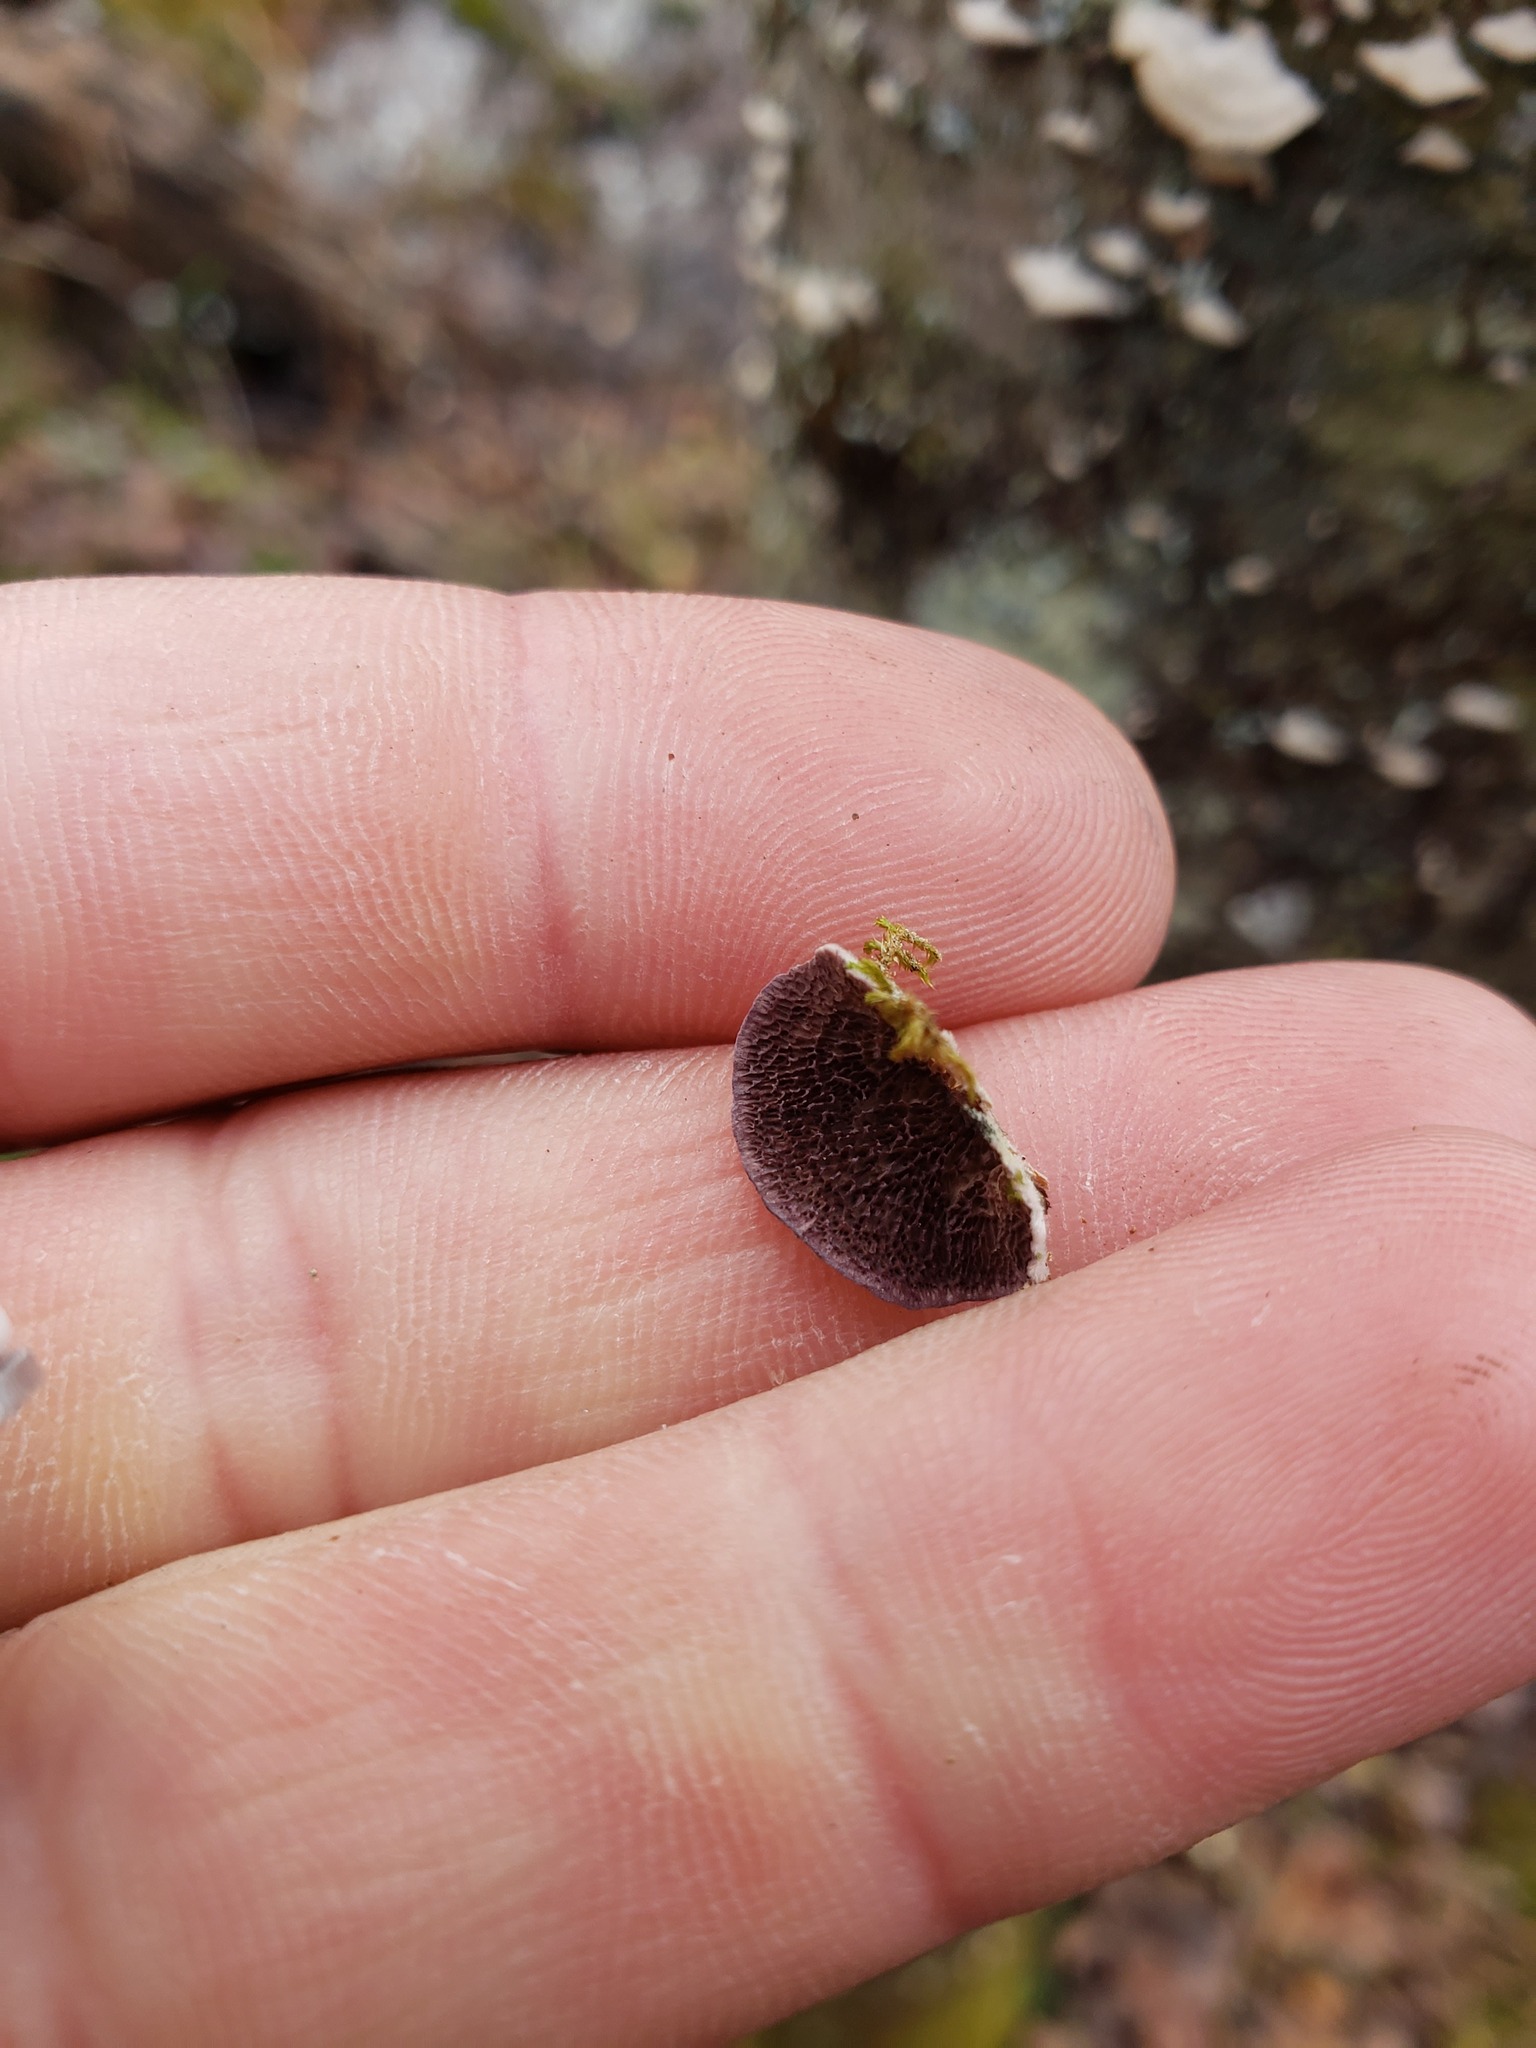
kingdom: Fungi
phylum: Basidiomycota
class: Agaricomycetes
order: Hymenochaetales
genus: Trichaptum
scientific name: Trichaptum biforme
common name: Violet-toothed polypore
